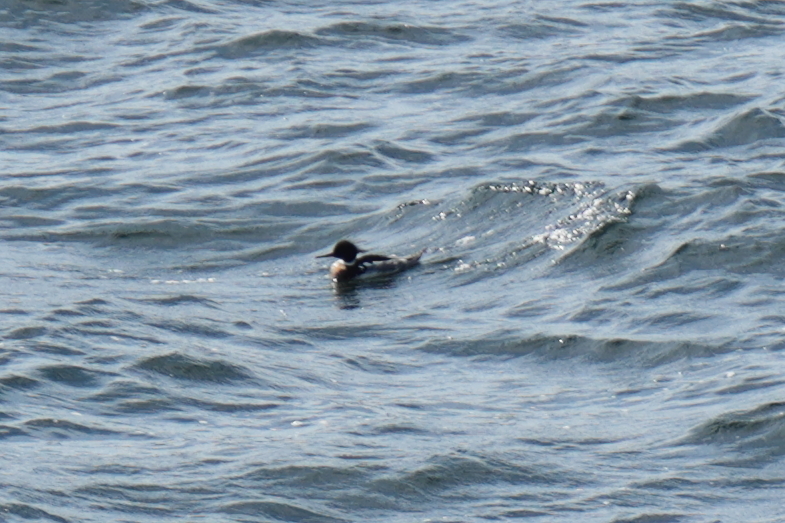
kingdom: Animalia
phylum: Chordata
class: Aves
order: Anseriformes
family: Anatidae
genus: Mergus
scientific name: Mergus serrator
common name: Red-breasted merganser
